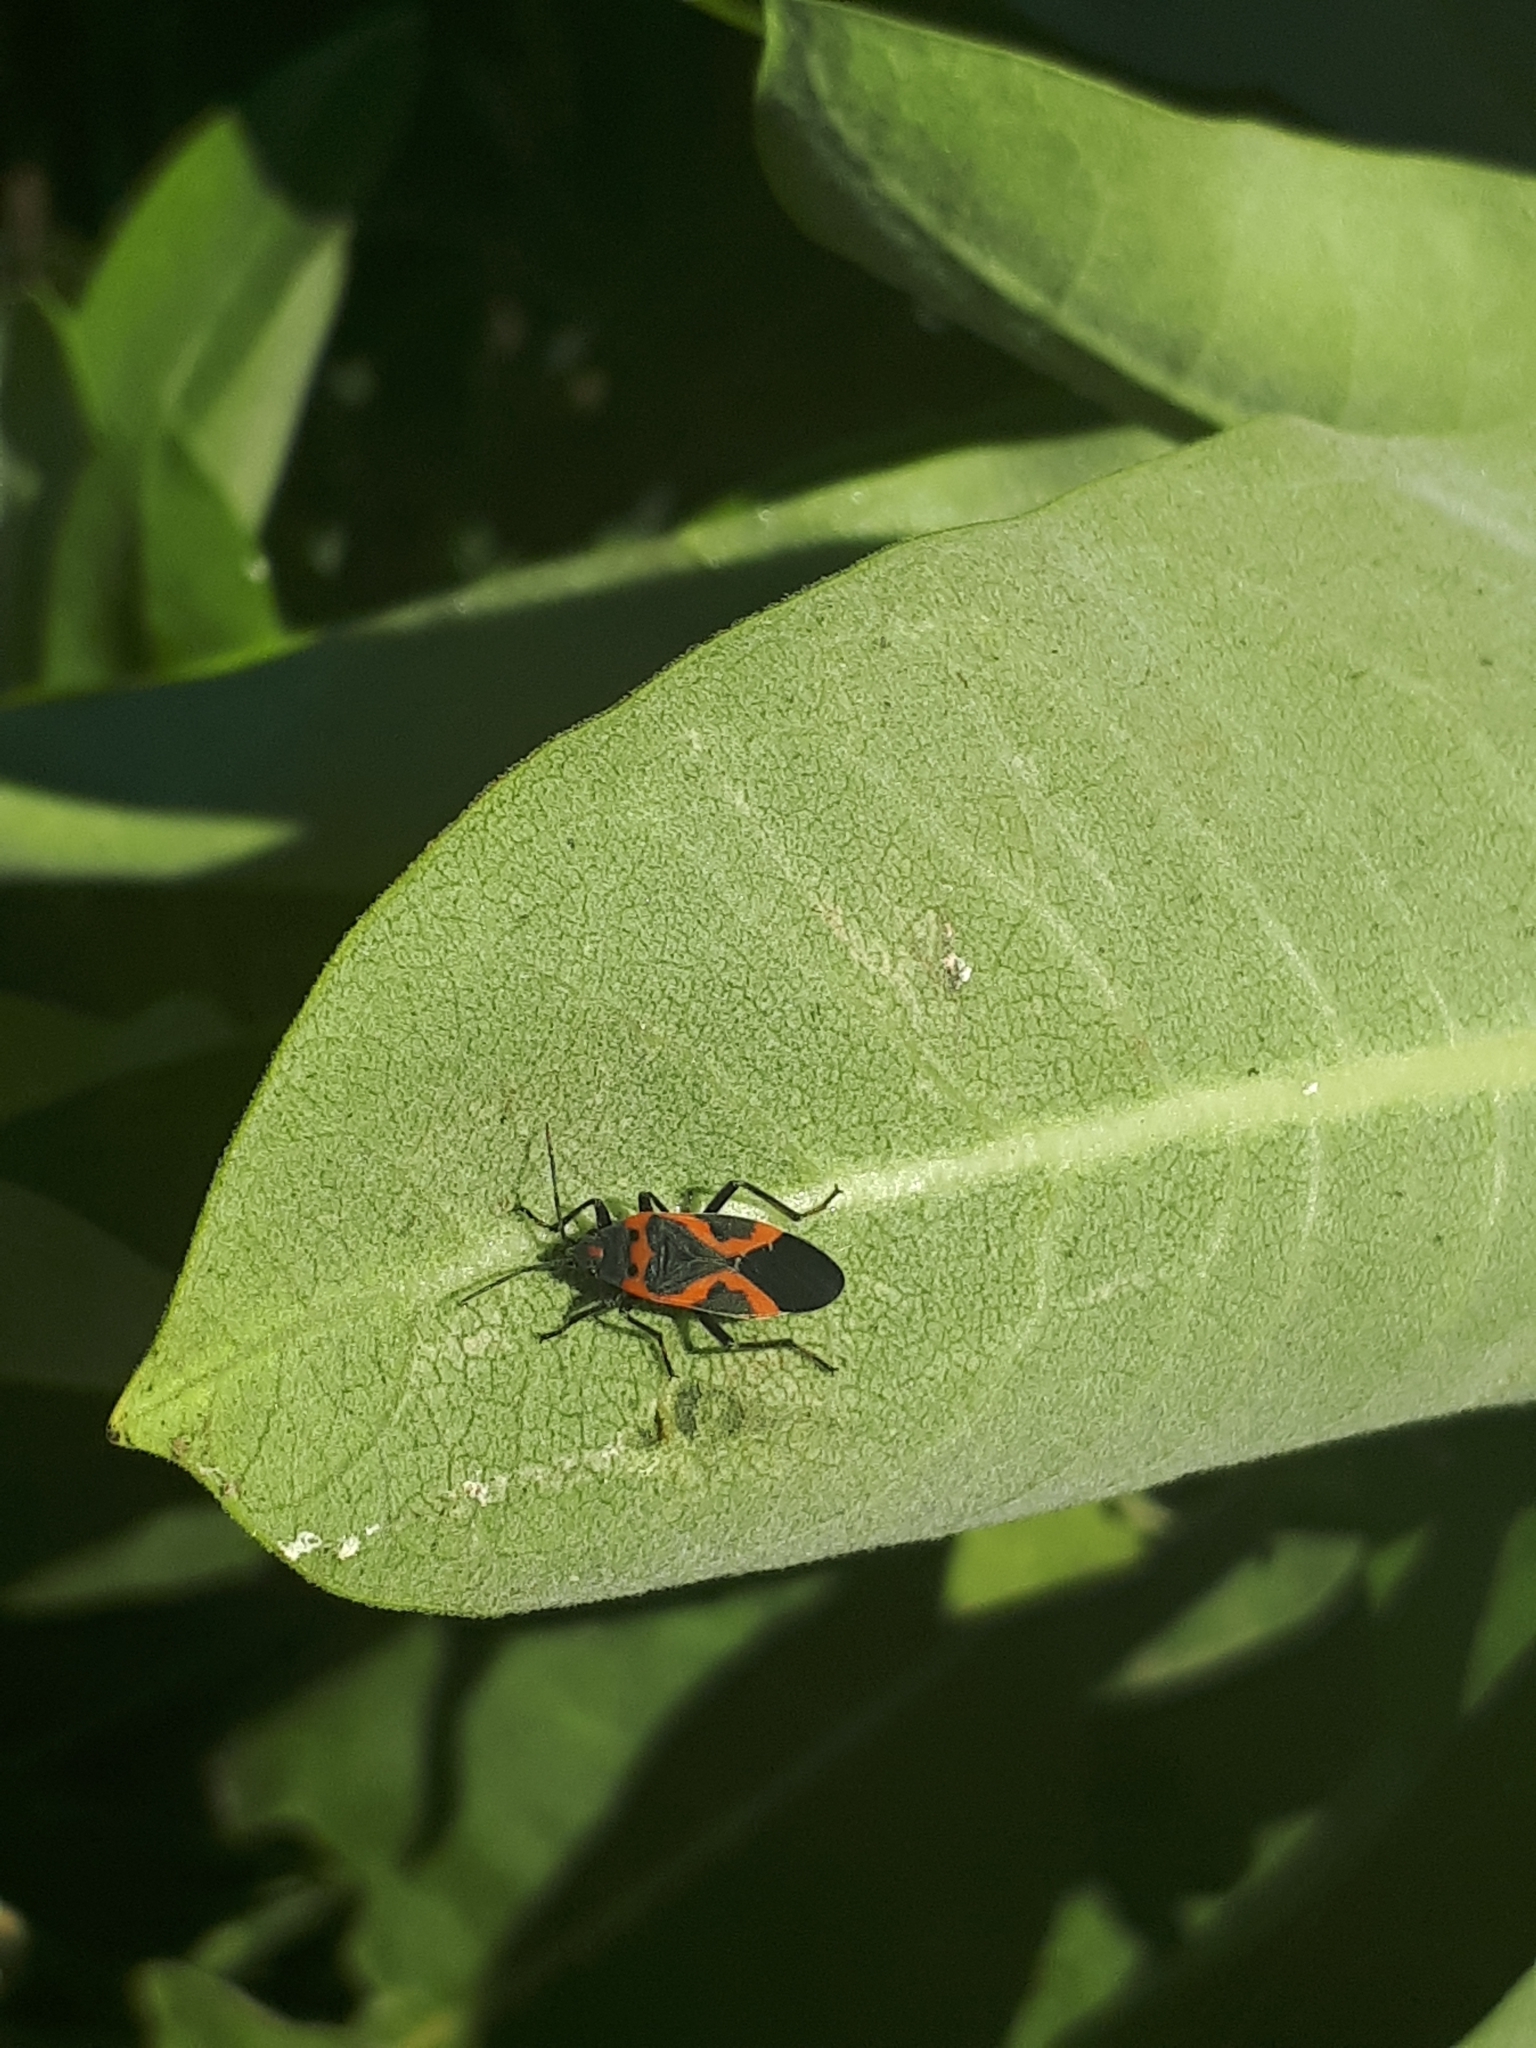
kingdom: Animalia
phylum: Arthropoda
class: Insecta
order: Hemiptera
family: Lygaeidae
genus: Lygaeus
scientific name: Lygaeus kalmii
